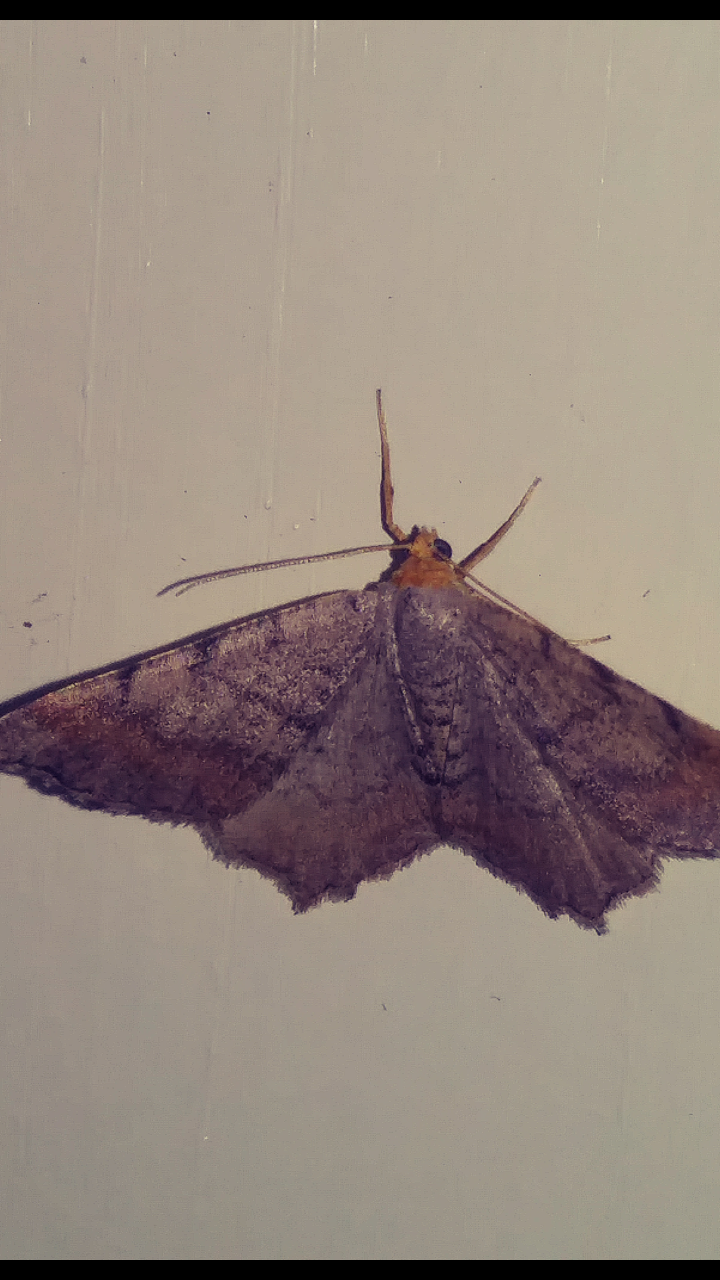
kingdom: Animalia
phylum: Arthropoda
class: Insecta
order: Lepidoptera
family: Geometridae
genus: Macaria
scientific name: Macaria minorata
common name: Minor angle moth
